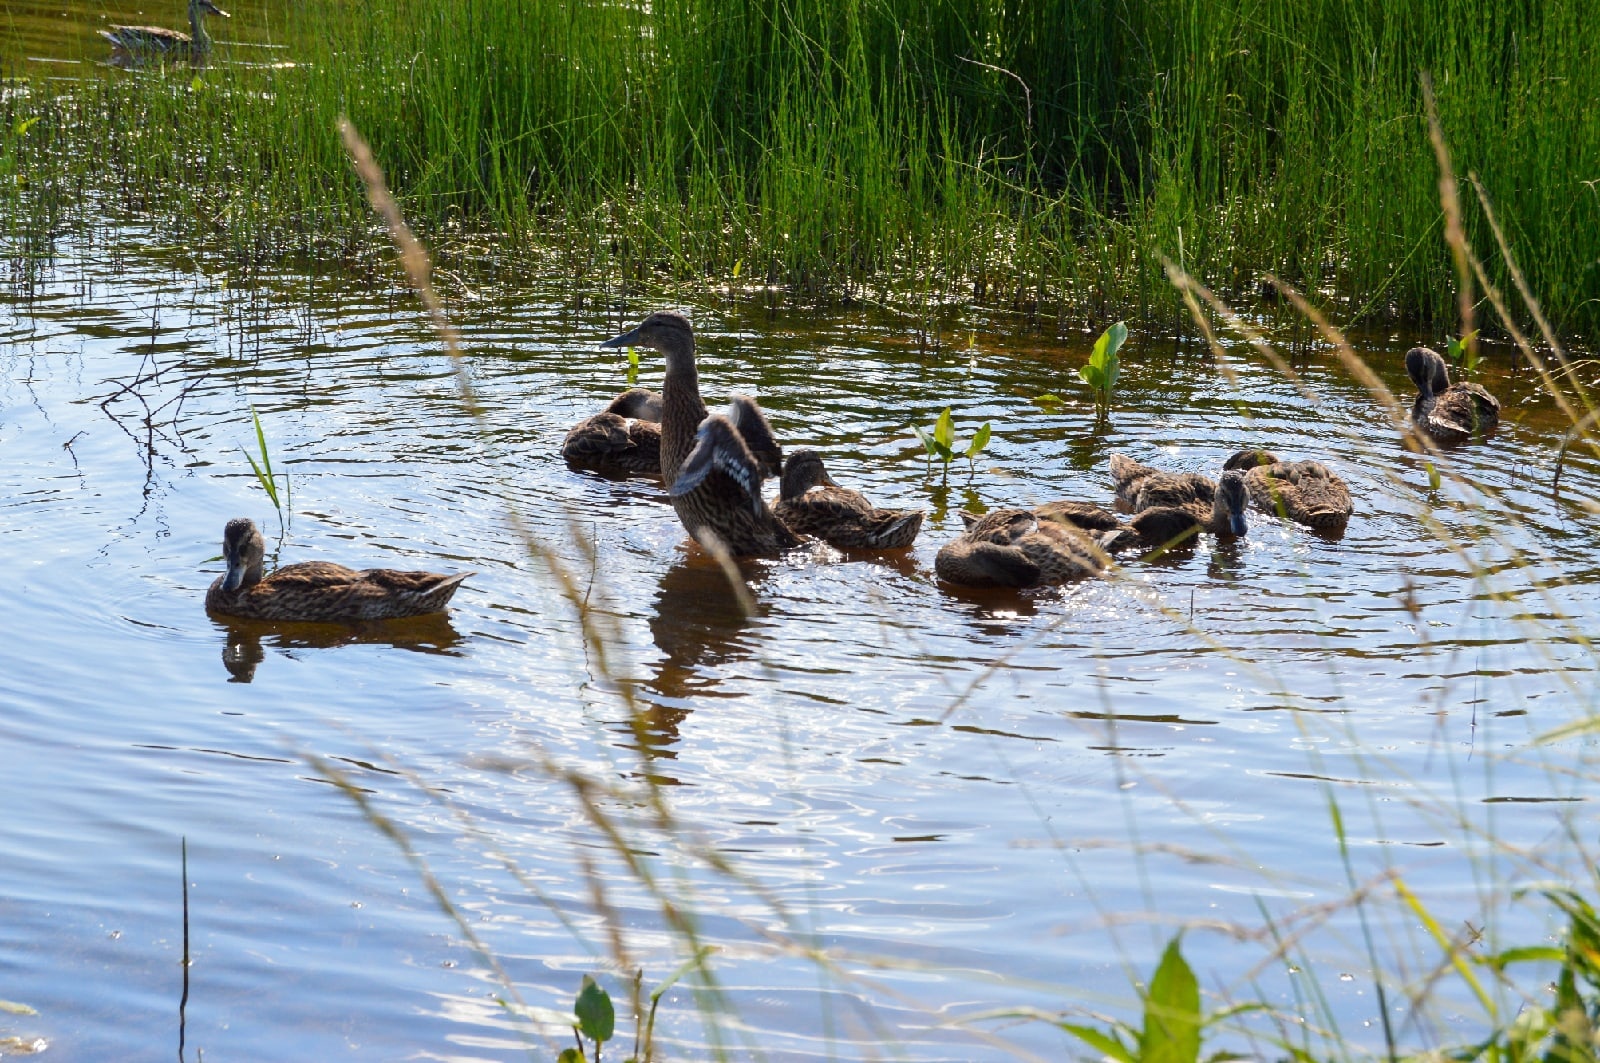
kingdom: Animalia
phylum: Chordata
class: Aves
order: Anseriformes
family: Anatidae
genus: Anas
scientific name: Anas platyrhynchos
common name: Mallard
